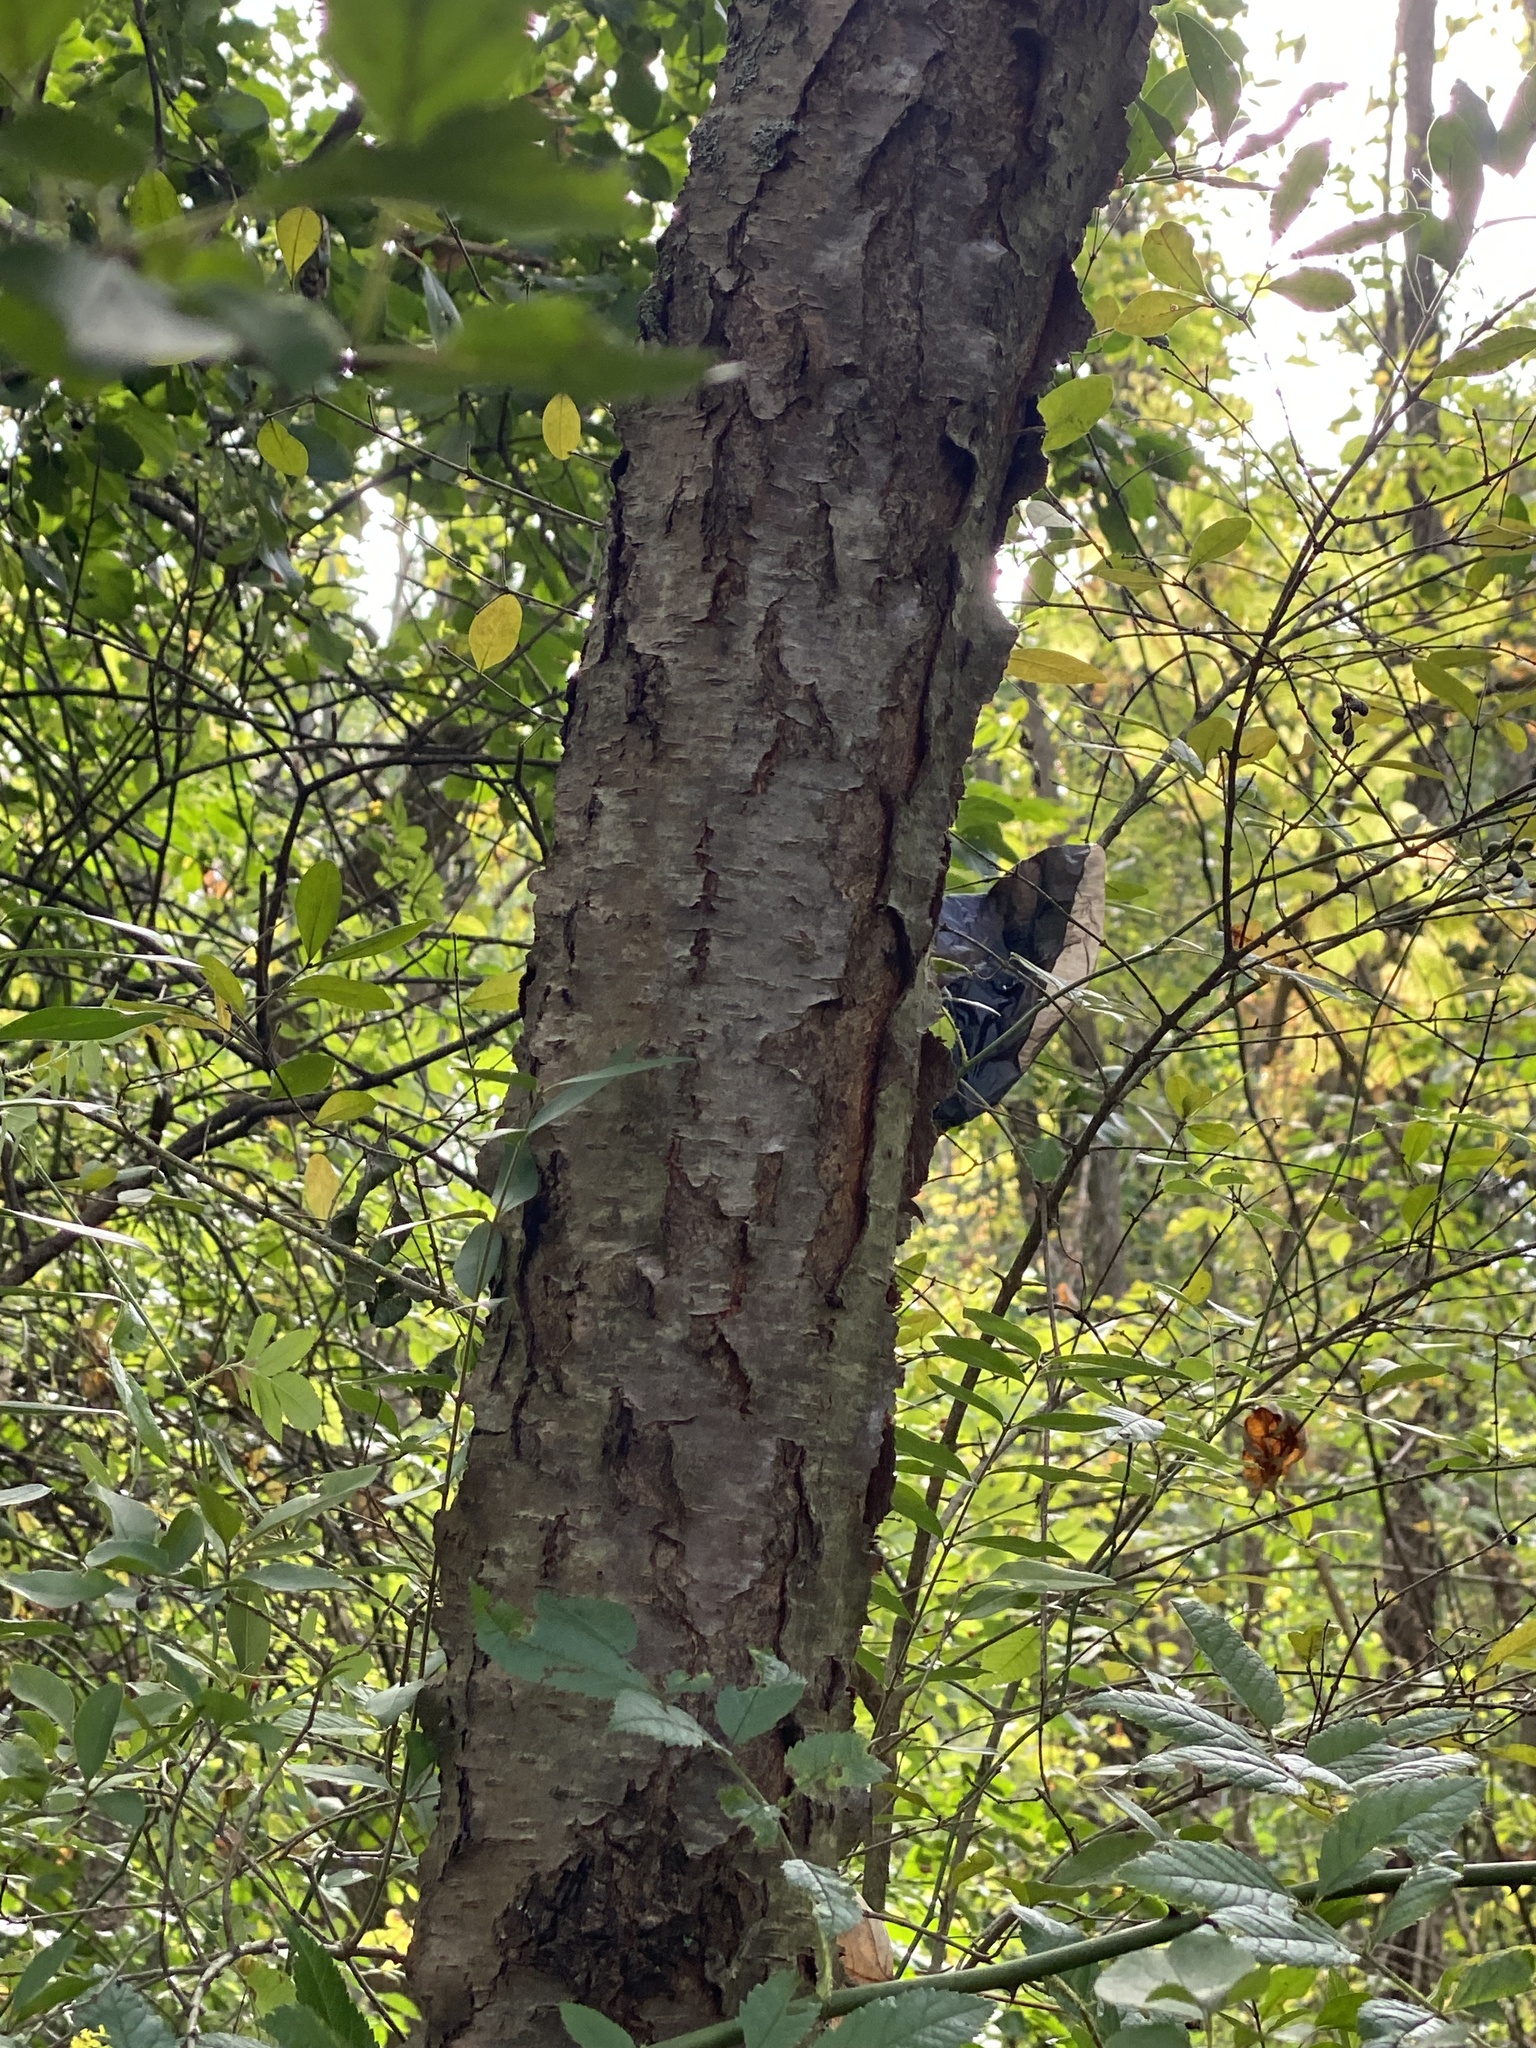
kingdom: Plantae
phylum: Tracheophyta
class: Magnoliopsida
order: Rosales
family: Rosaceae
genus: Prunus
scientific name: Prunus serotina
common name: Black cherry
